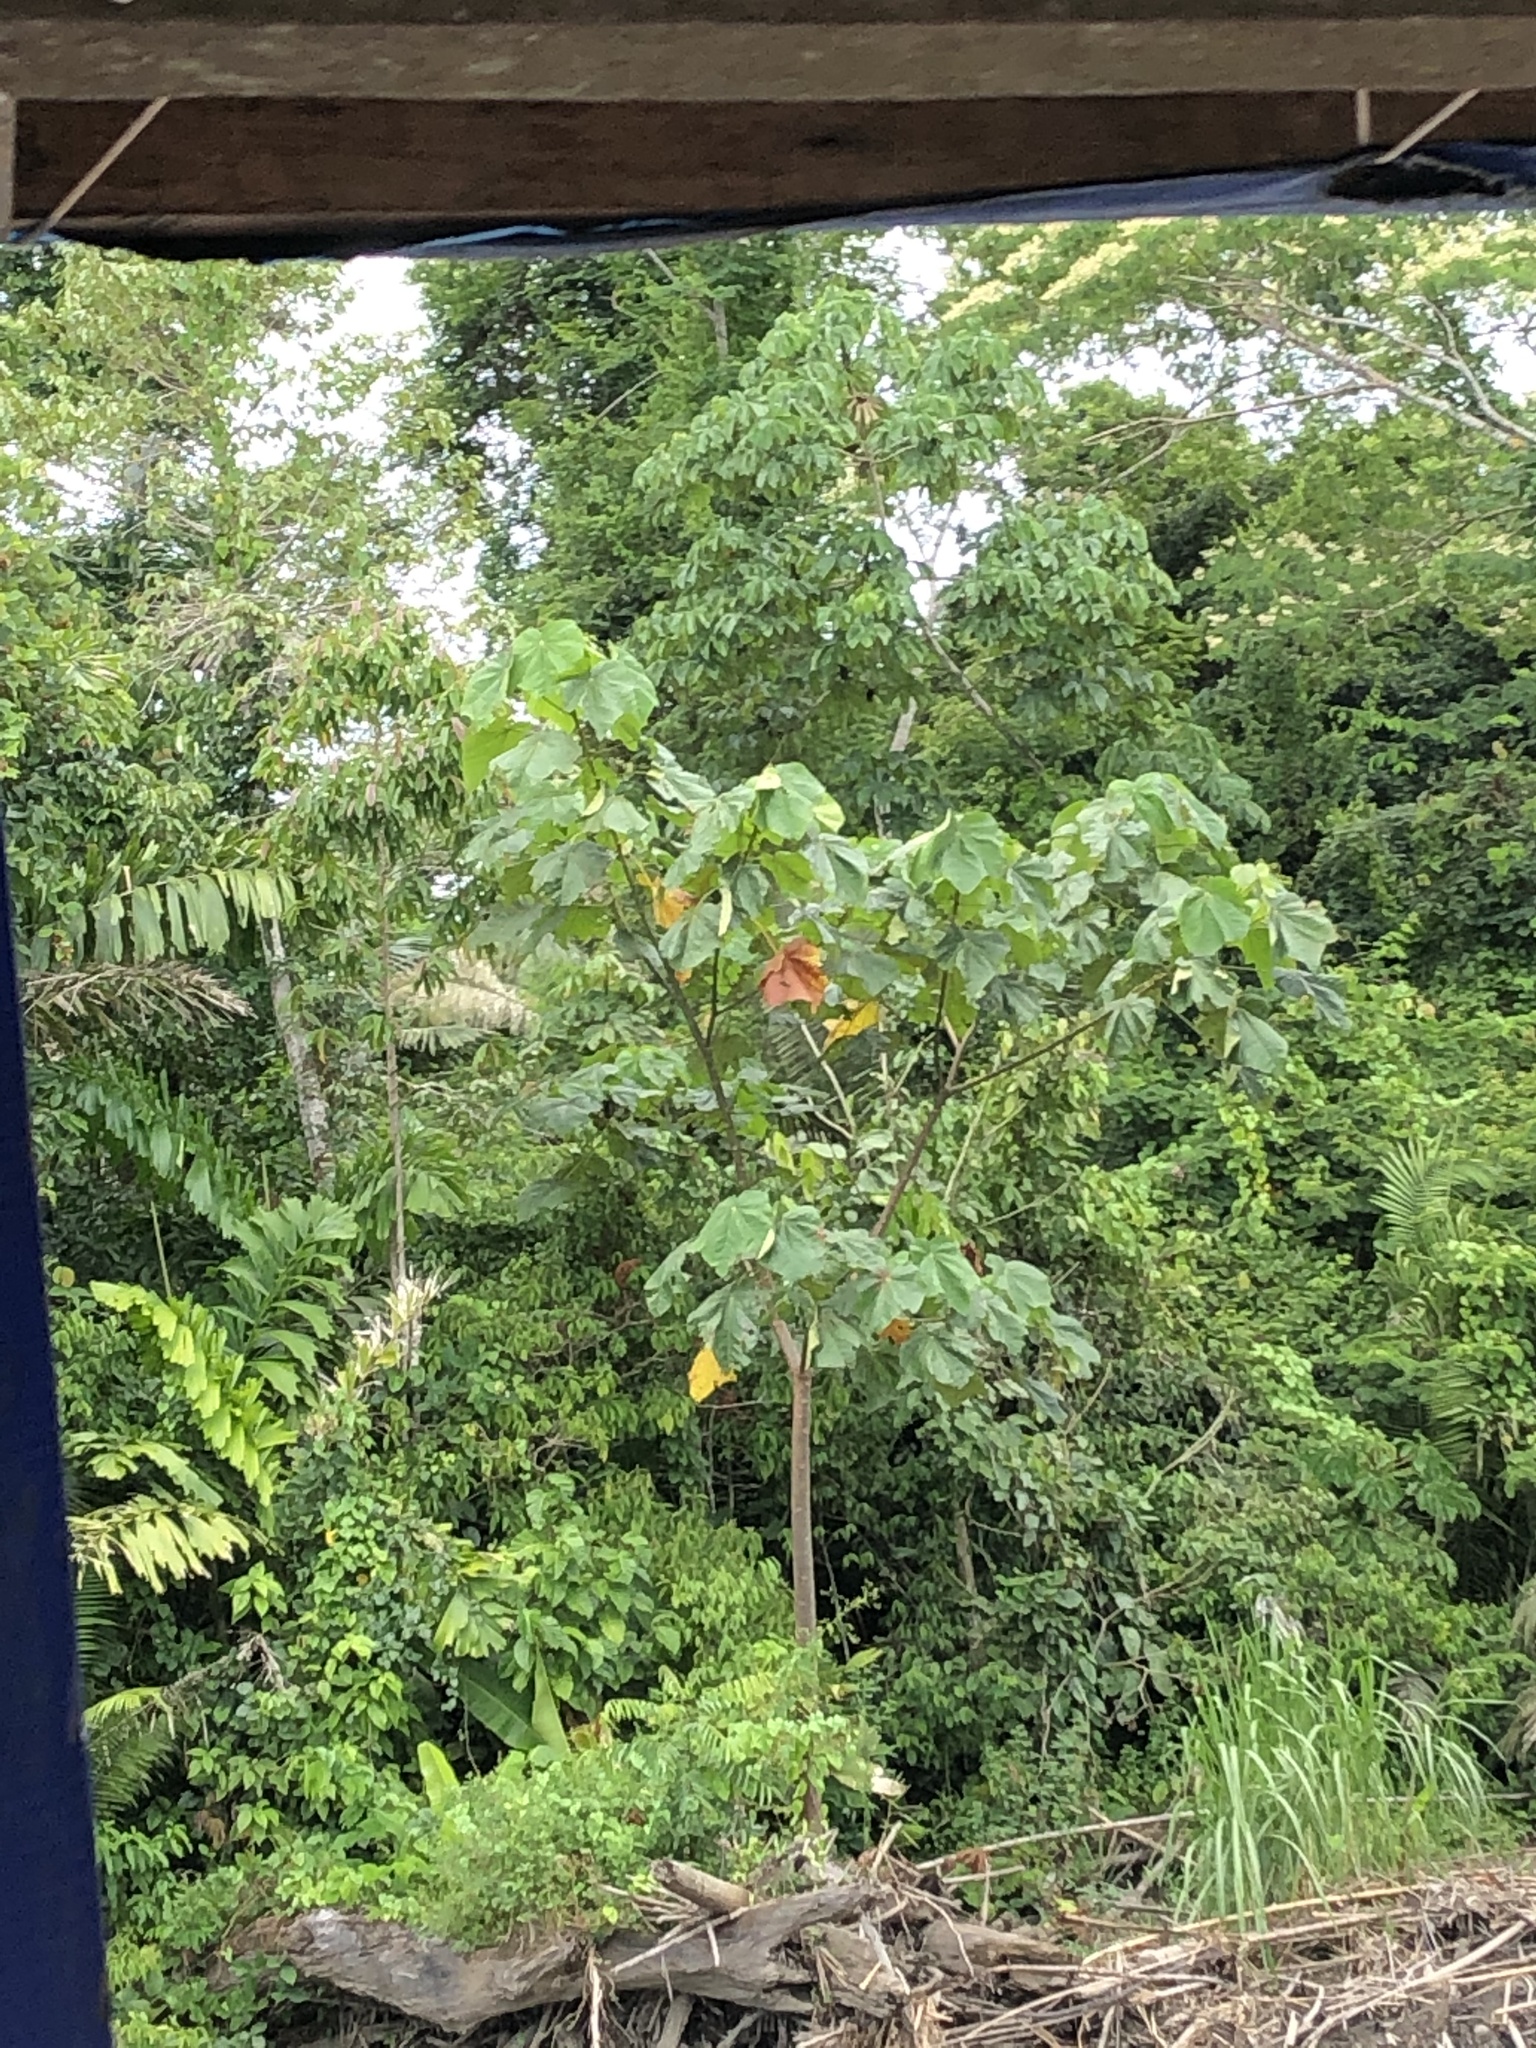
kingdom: Plantae
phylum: Tracheophyta
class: Magnoliopsida
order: Malvales
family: Malvaceae
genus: Ochroma
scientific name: Ochroma pyramidale
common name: Balsa
